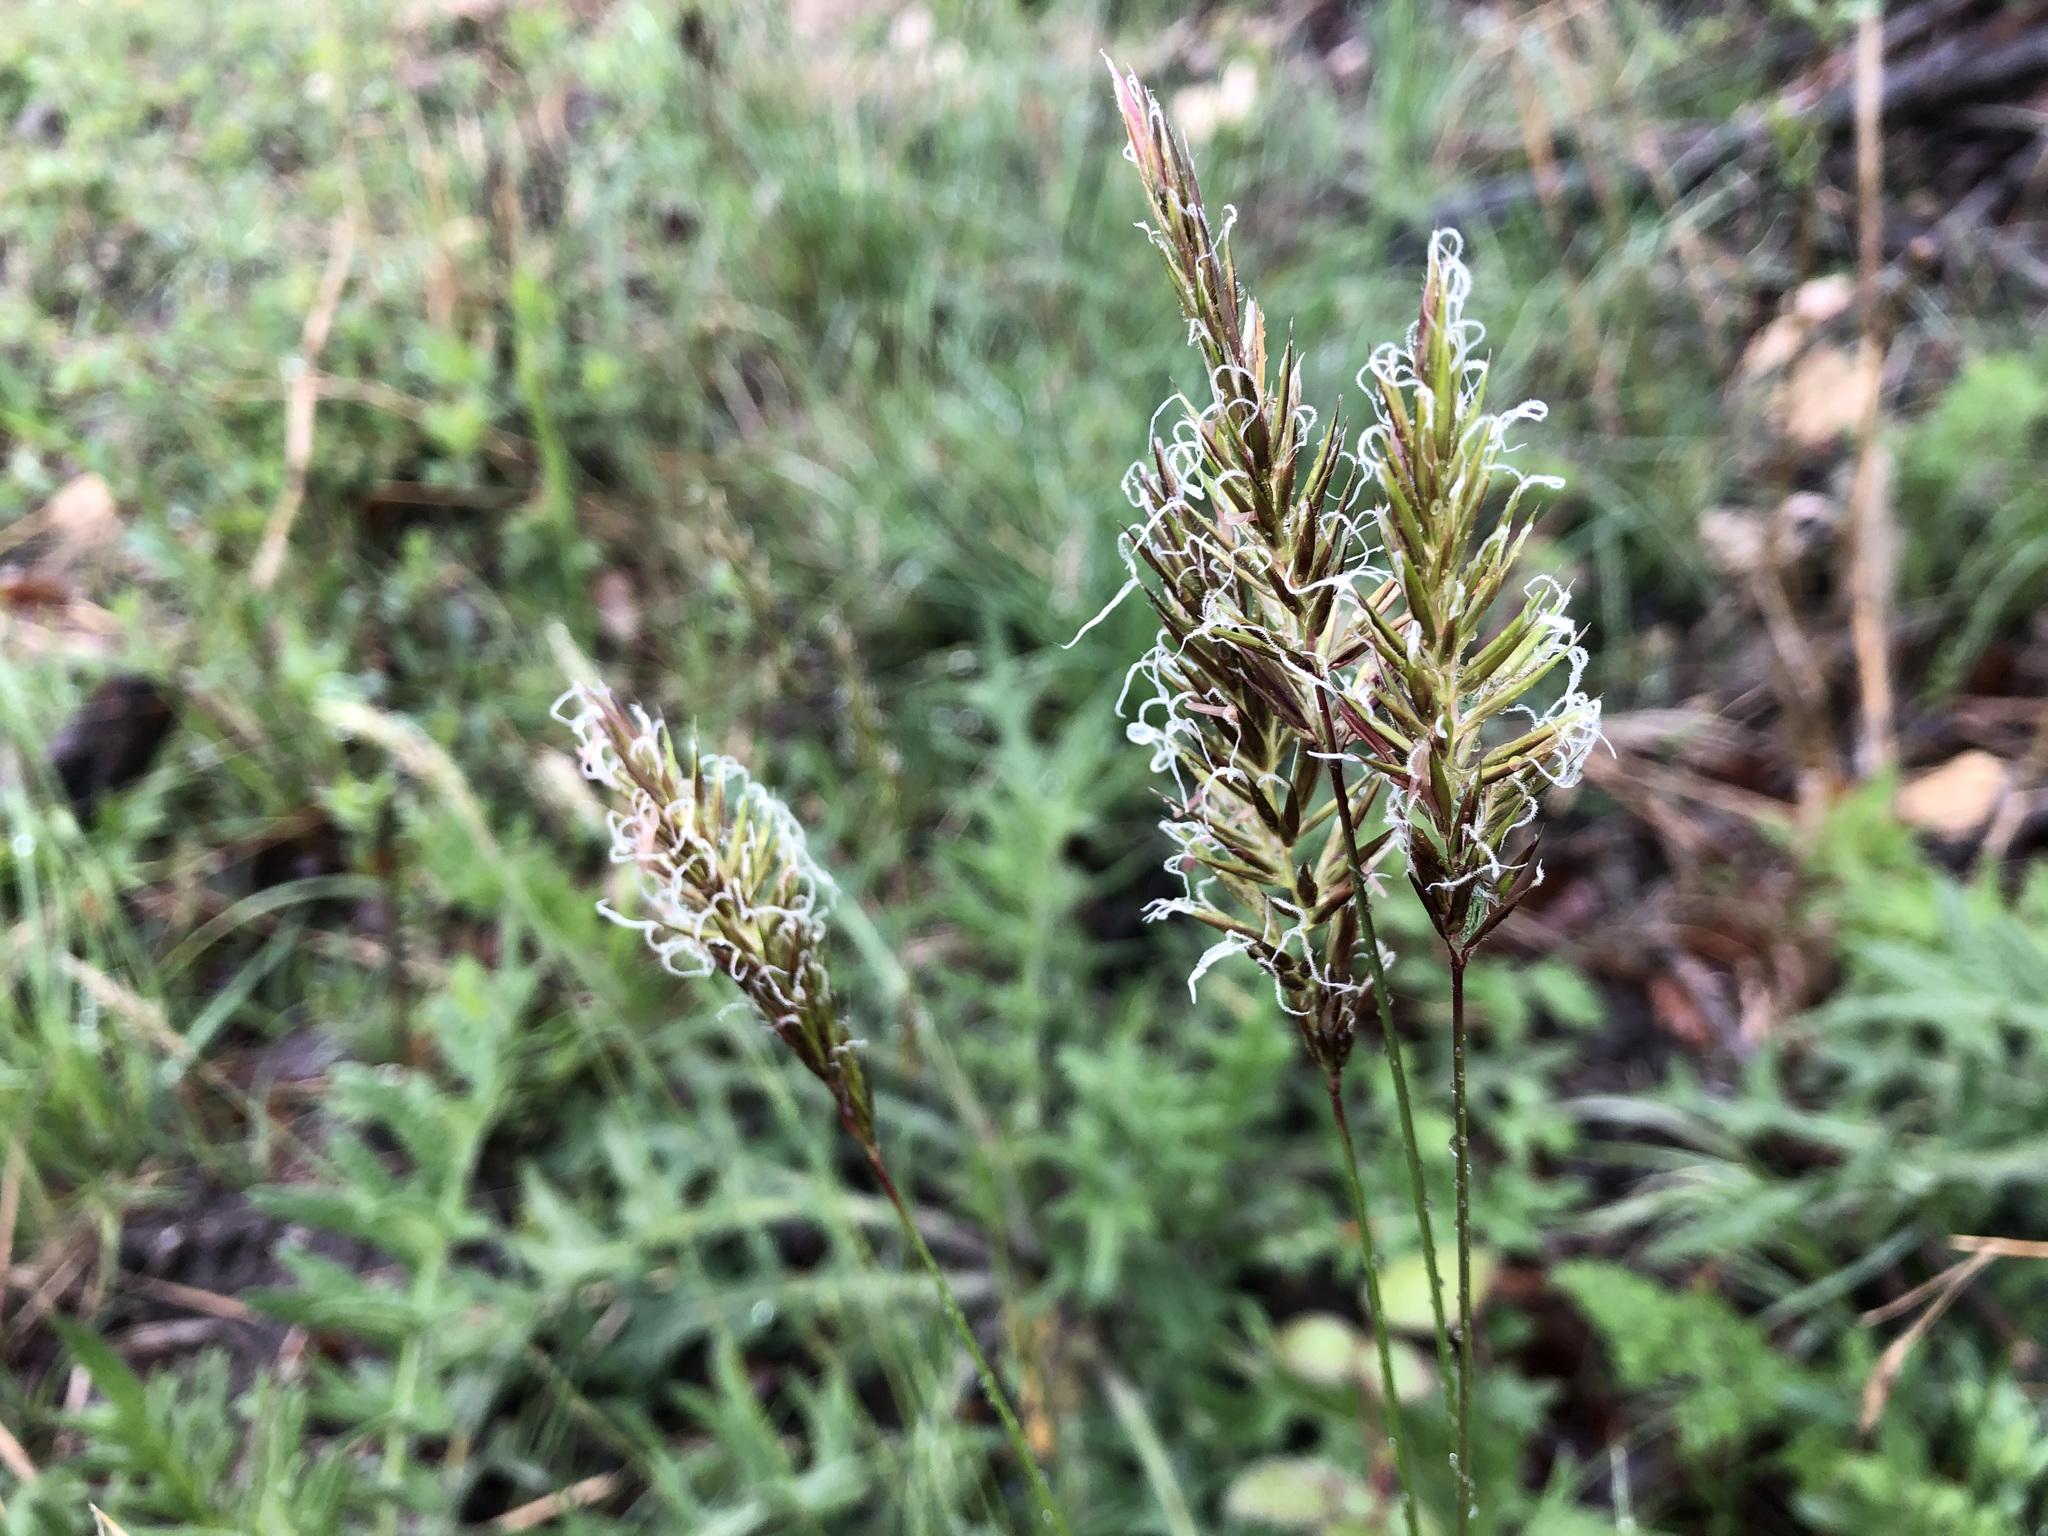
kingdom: Plantae
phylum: Tracheophyta
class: Liliopsida
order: Poales
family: Poaceae
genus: Anthoxanthum
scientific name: Anthoxanthum odoratum
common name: Sweet vernalgrass
